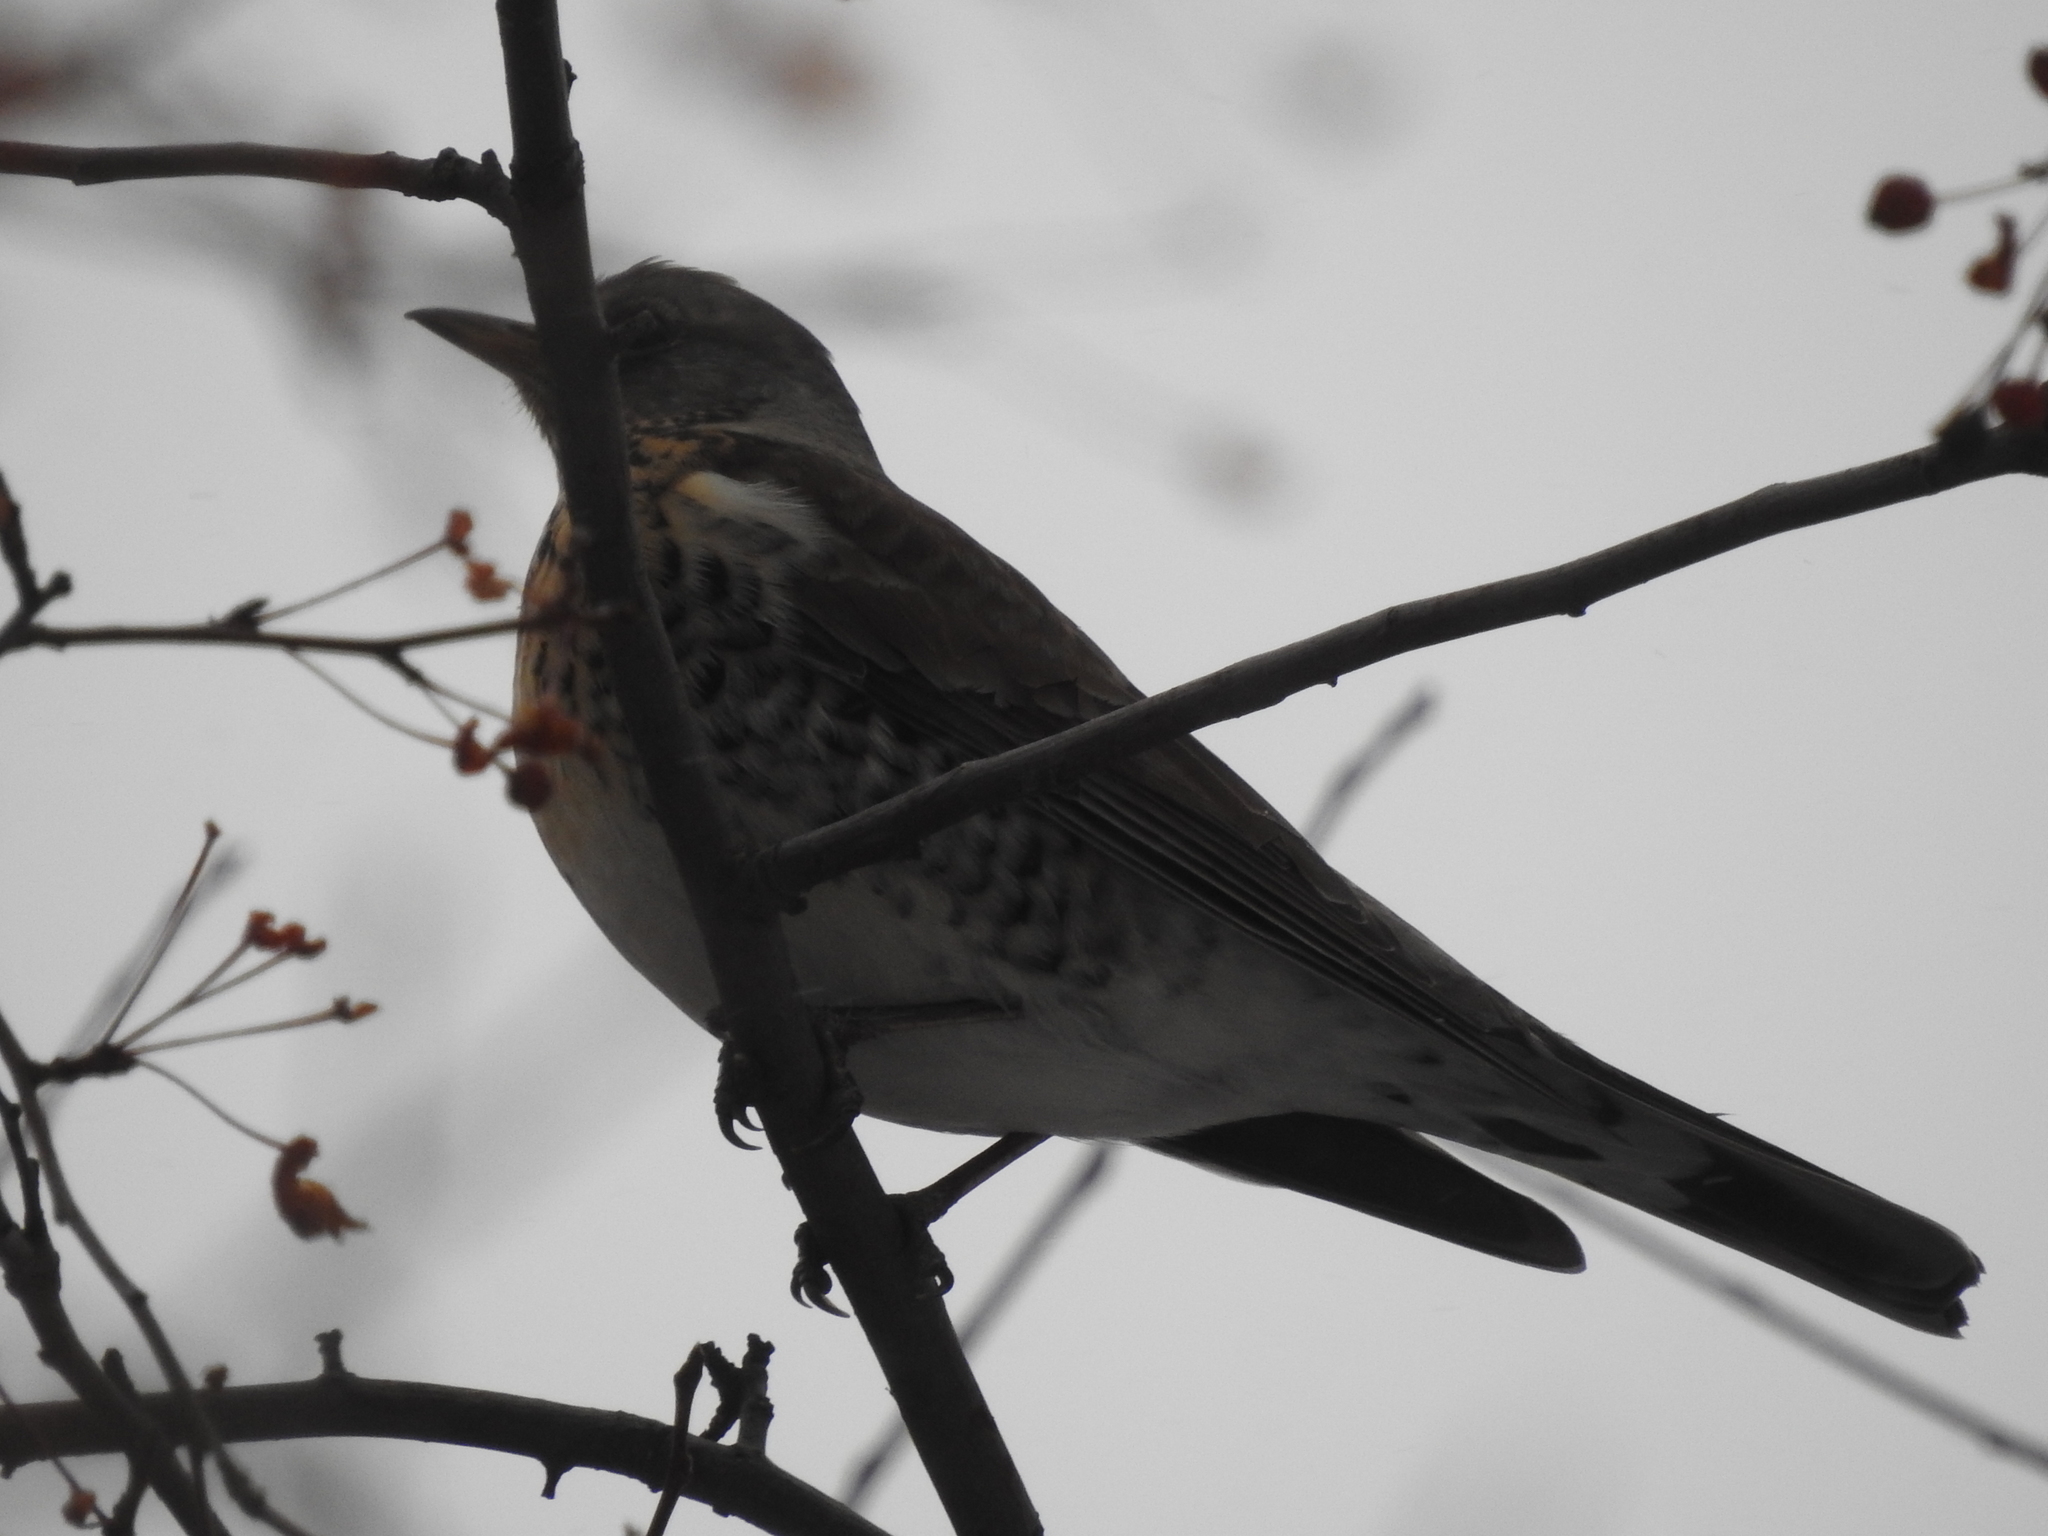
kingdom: Animalia
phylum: Chordata
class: Aves
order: Passeriformes
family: Turdidae
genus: Turdus
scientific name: Turdus pilaris
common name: Fieldfare
